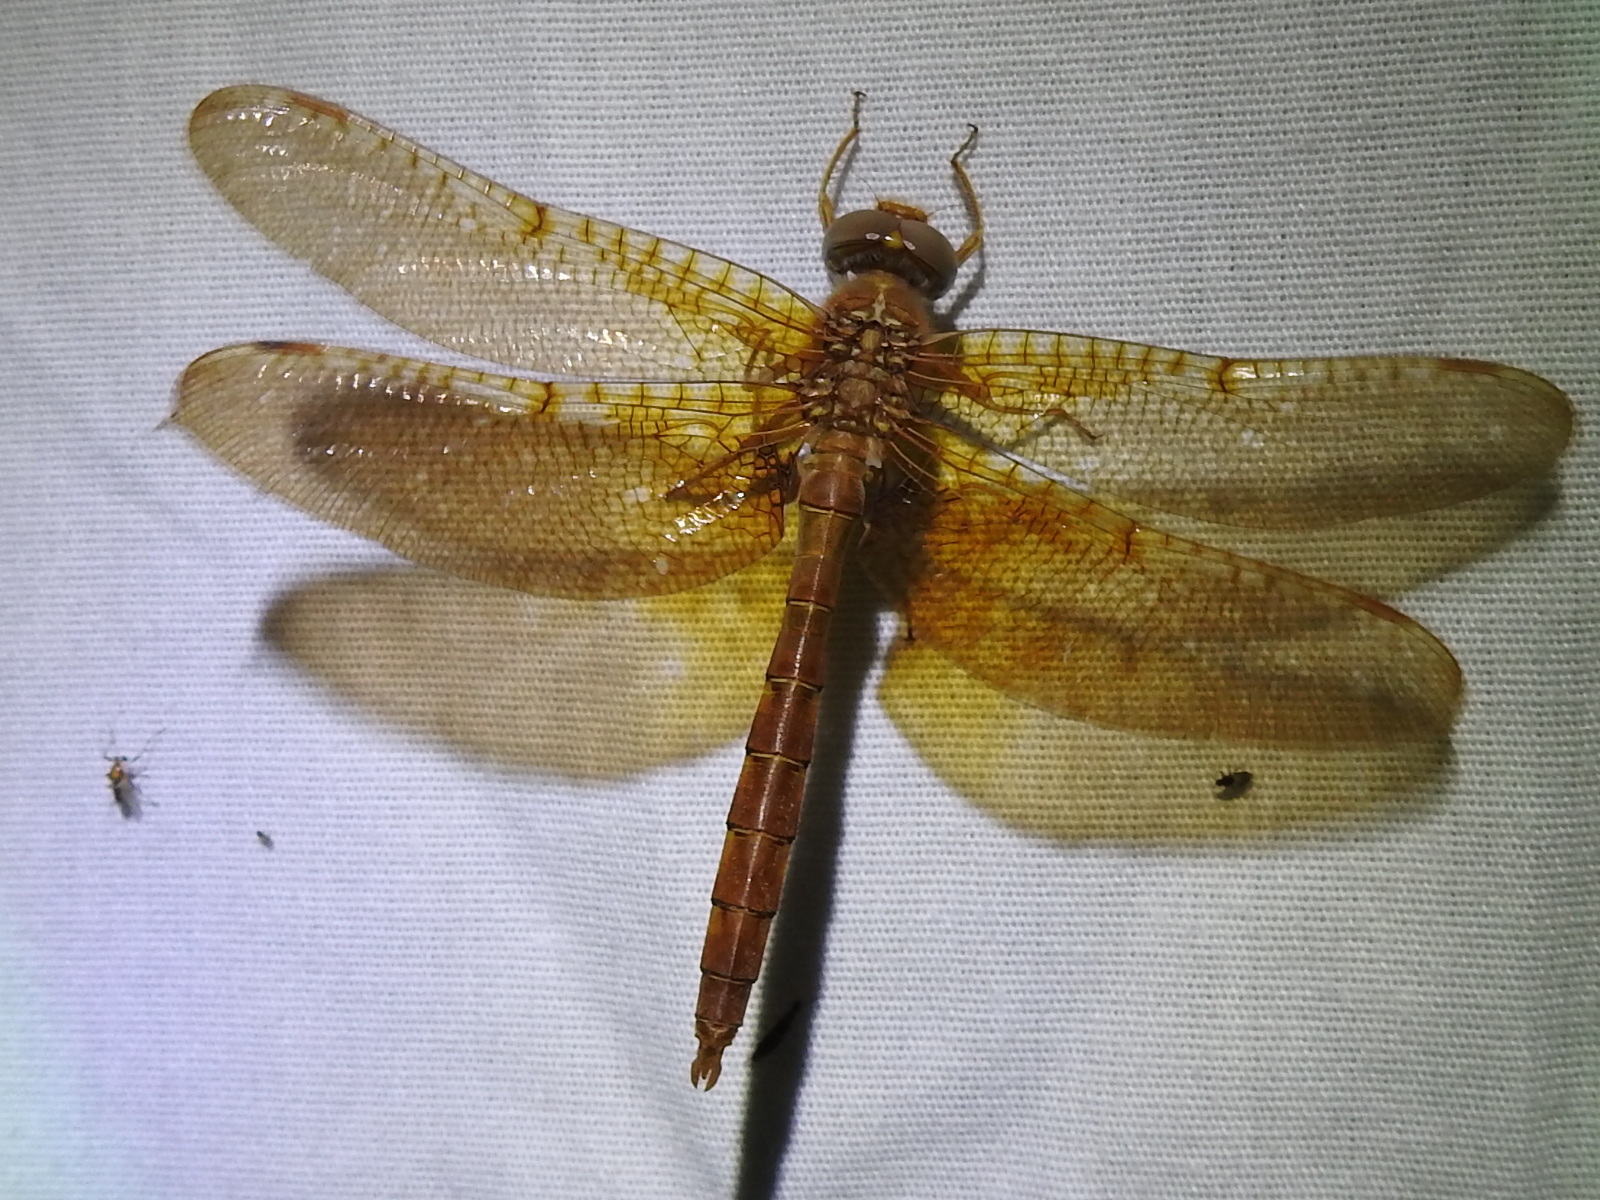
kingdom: Animalia
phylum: Arthropoda
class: Insecta
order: Odonata
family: Corduliidae
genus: Neurocordulia
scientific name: Neurocordulia xanthosoma
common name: Orange shadowdragon
